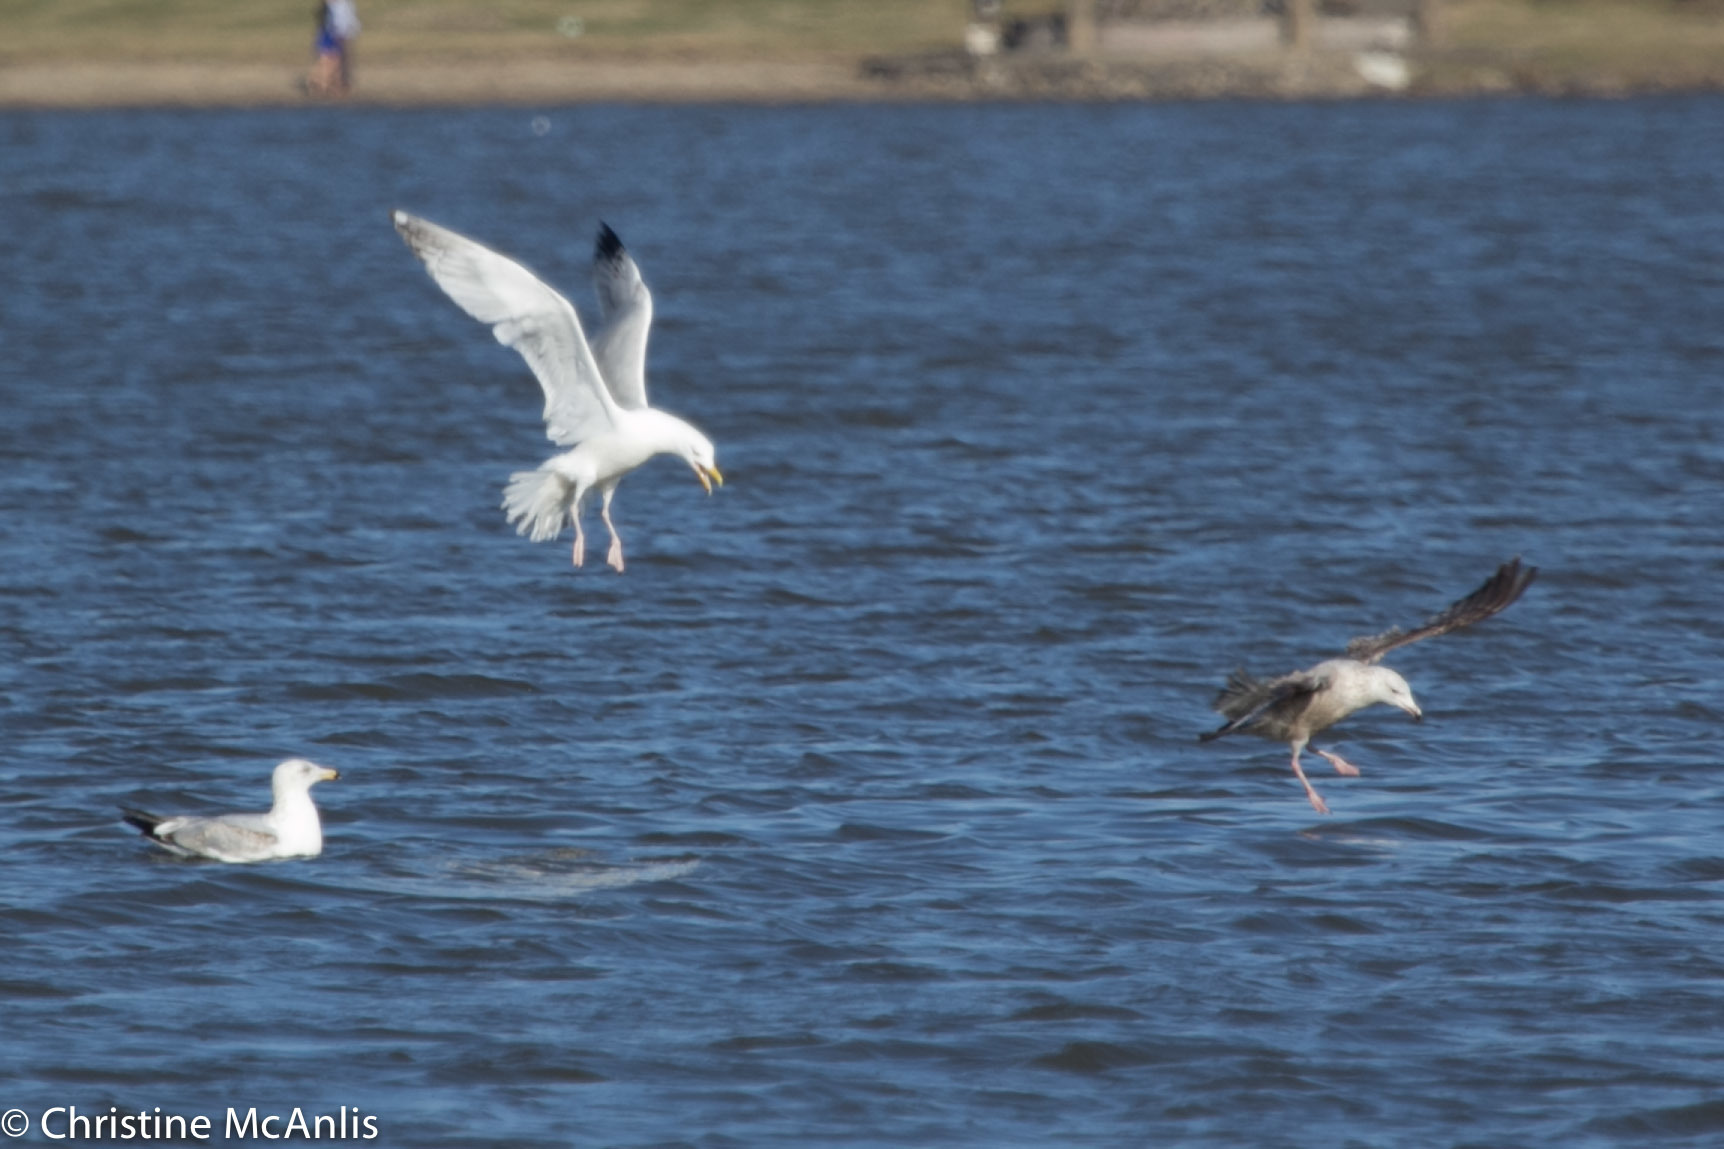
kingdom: Animalia
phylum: Chordata
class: Aves
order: Charadriiformes
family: Laridae
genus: Larus
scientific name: Larus argentatus
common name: Herring gull
